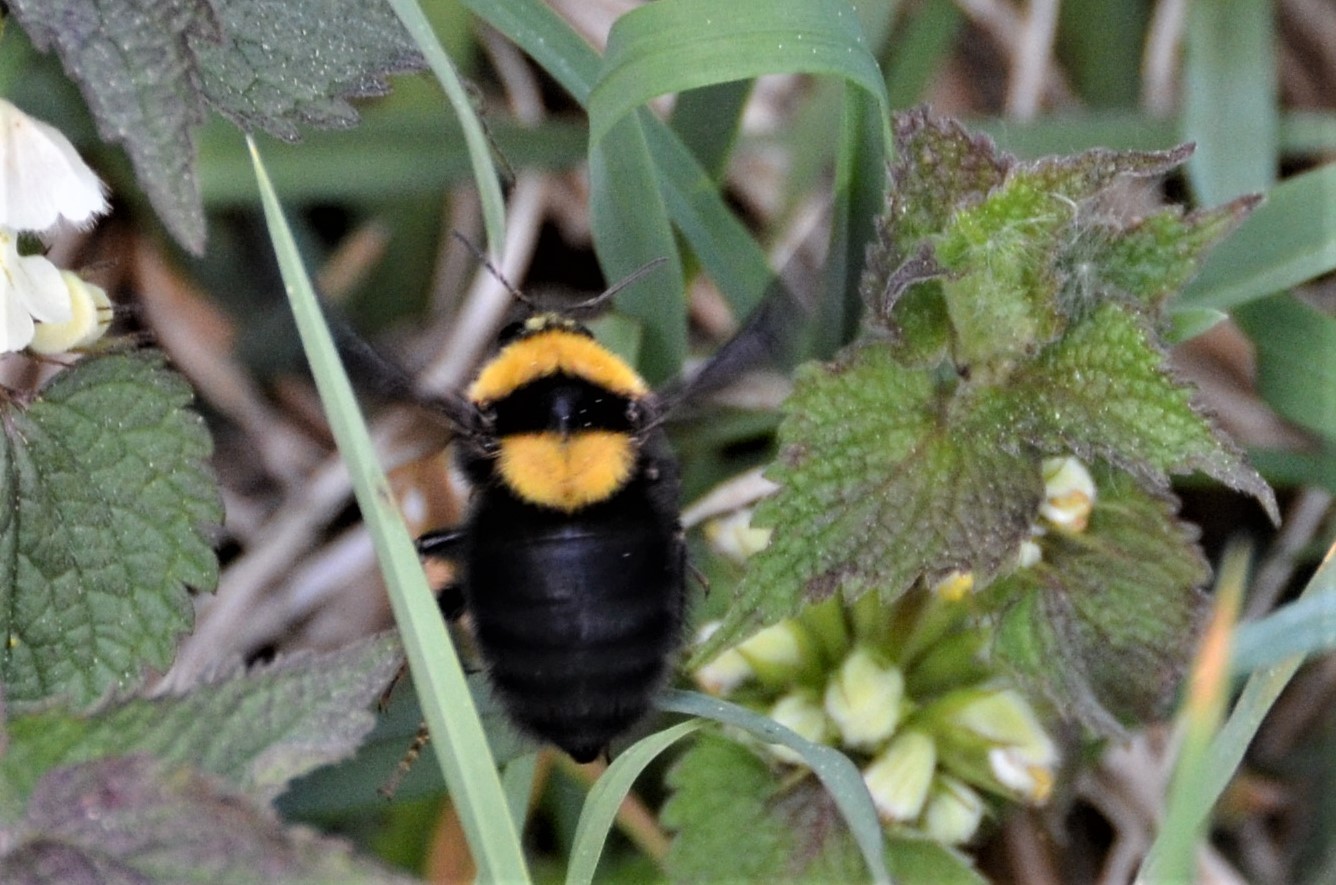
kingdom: Animalia
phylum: Arthropoda
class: Insecta
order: Hymenoptera
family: Apidae
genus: Bombus
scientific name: Bombus argillaceus
